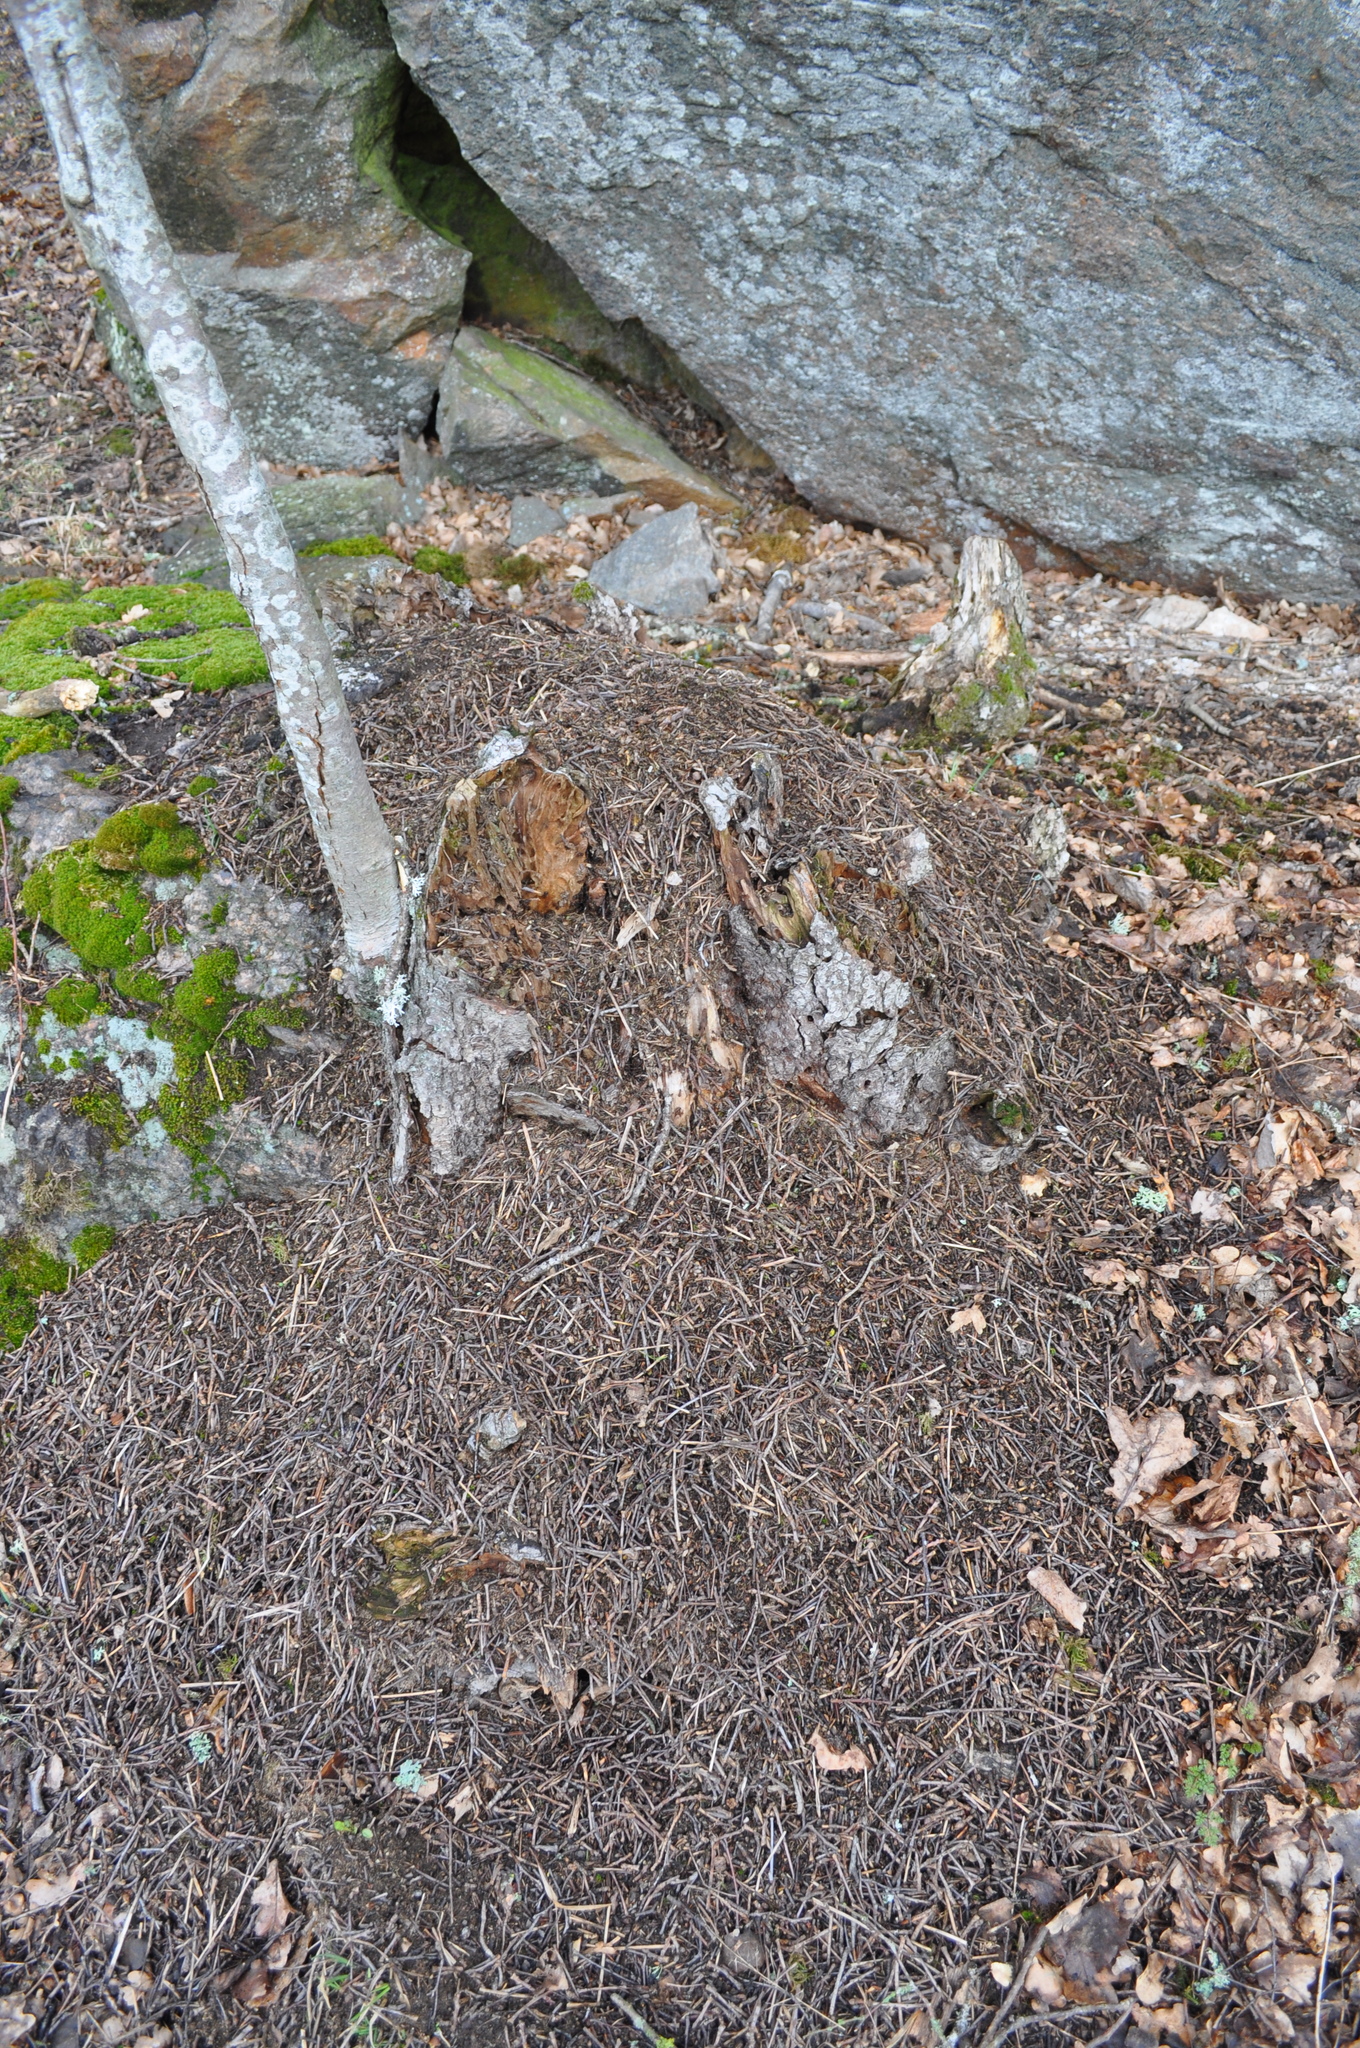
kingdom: Animalia
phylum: Arthropoda
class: Insecta
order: Hymenoptera
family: Formicidae
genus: Formica
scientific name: Formica rufa
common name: Red wood ant
